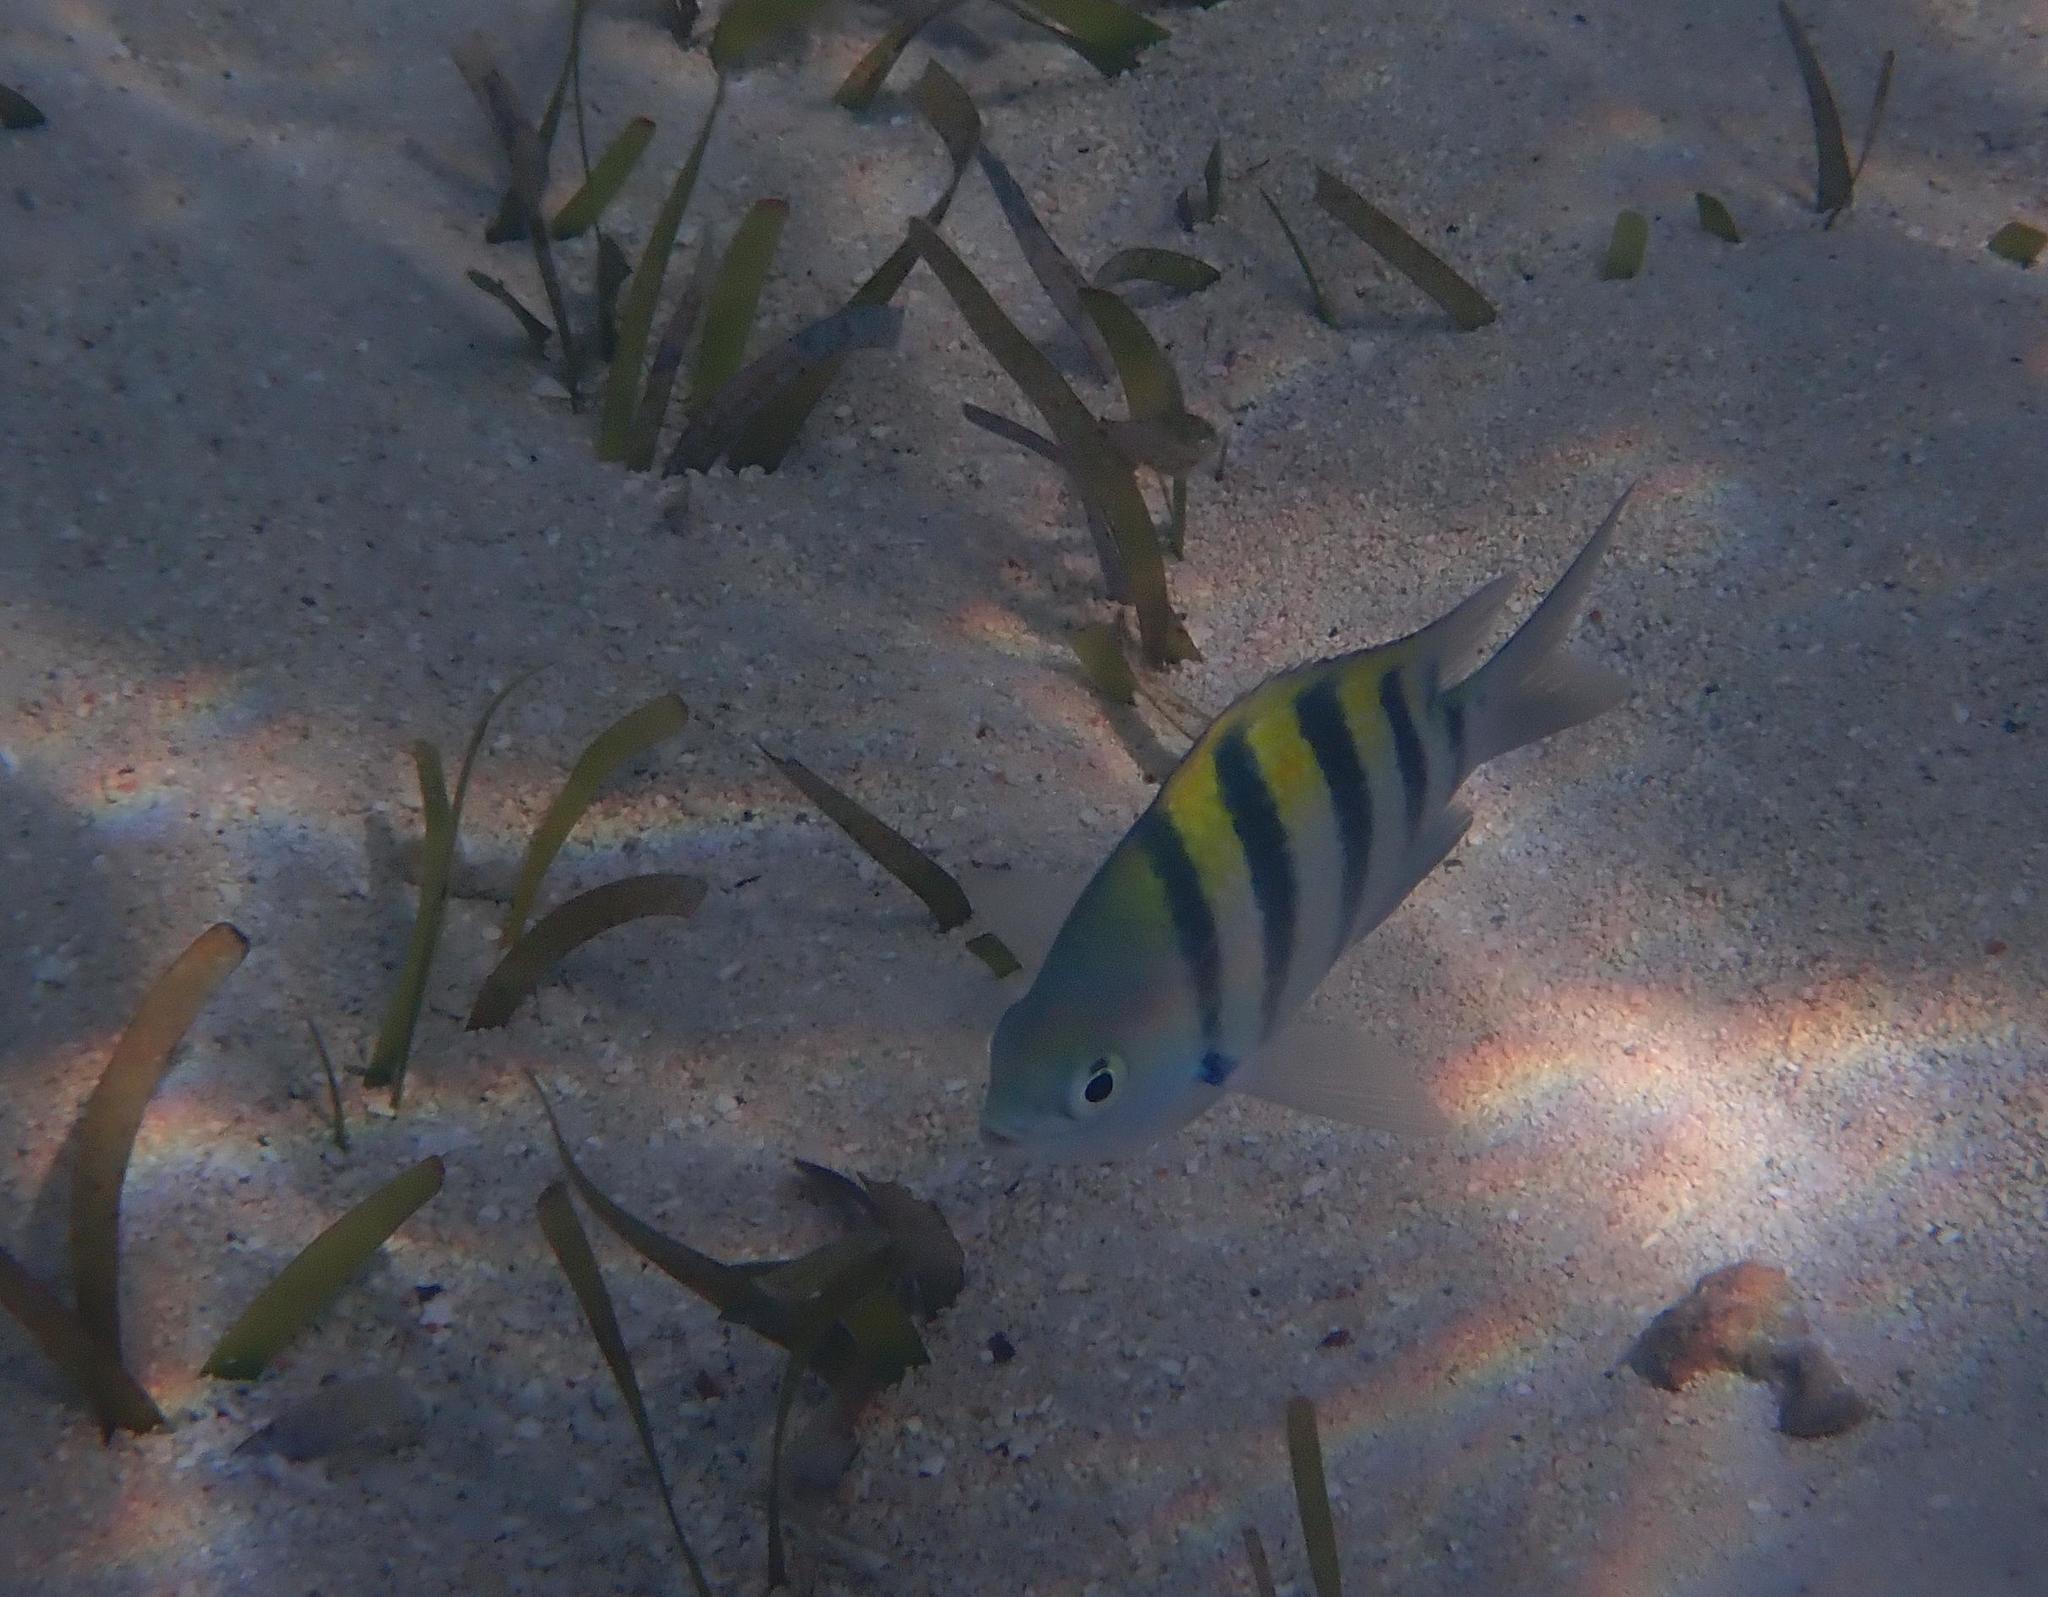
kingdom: Animalia
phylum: Chordata
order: Perciformes
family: Pomacentridae
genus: Abudefduf
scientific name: Abudefduf saxatilis
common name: Sergeant major
